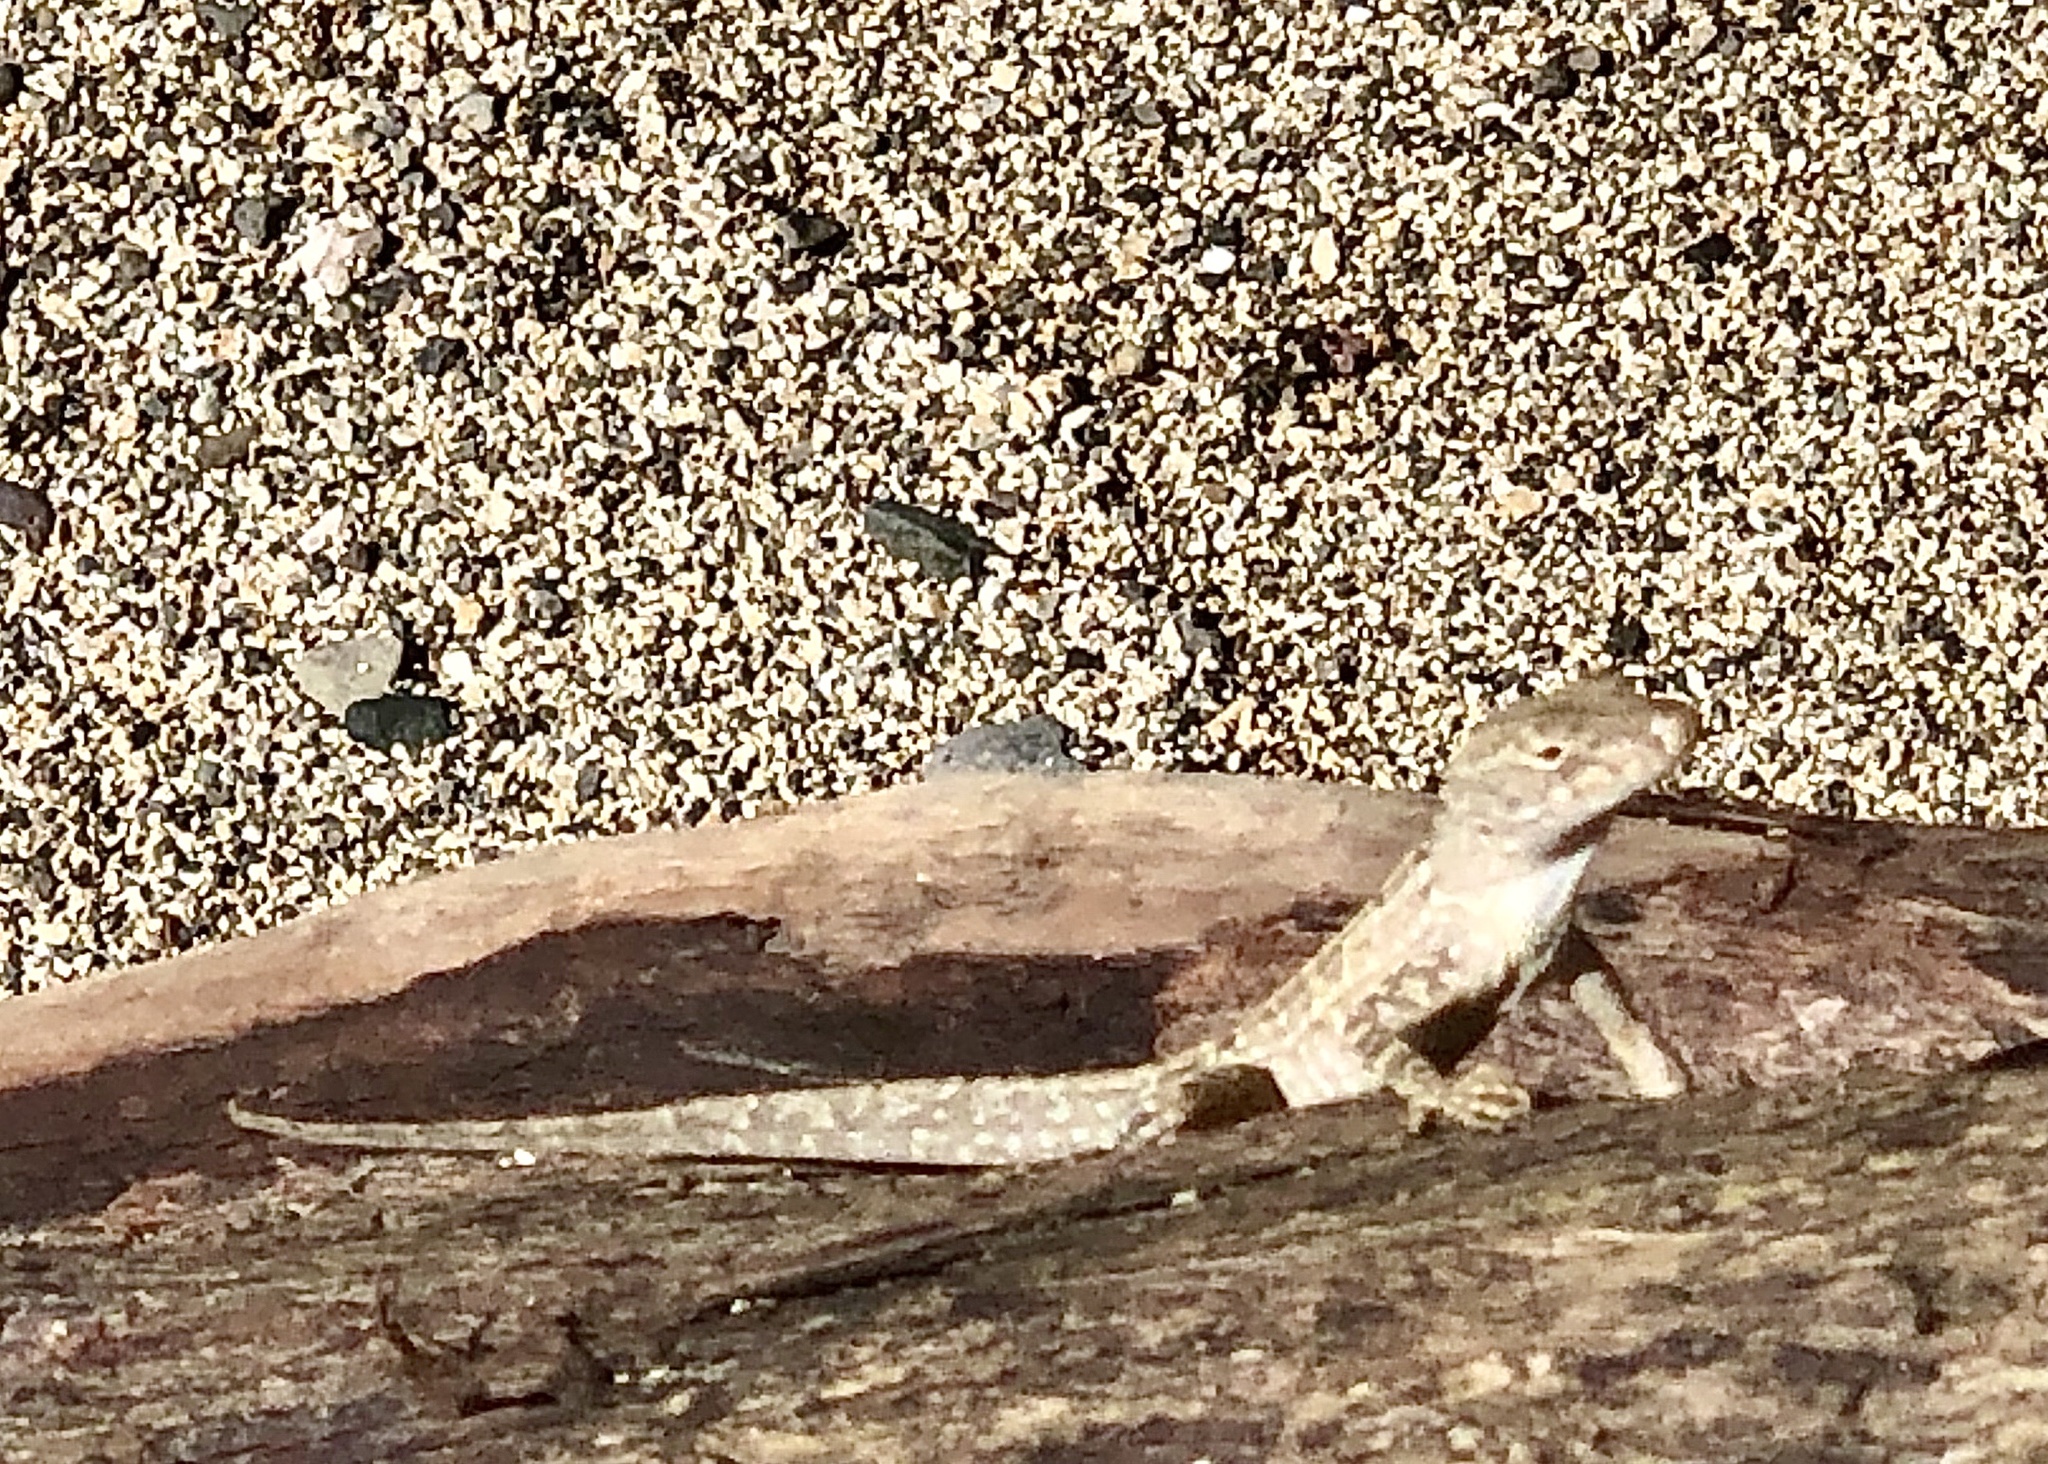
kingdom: Animalia
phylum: Chordata
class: Squamata
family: Dactyloidae
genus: Anolis
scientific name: Anolis sagrei
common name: Brown anole
